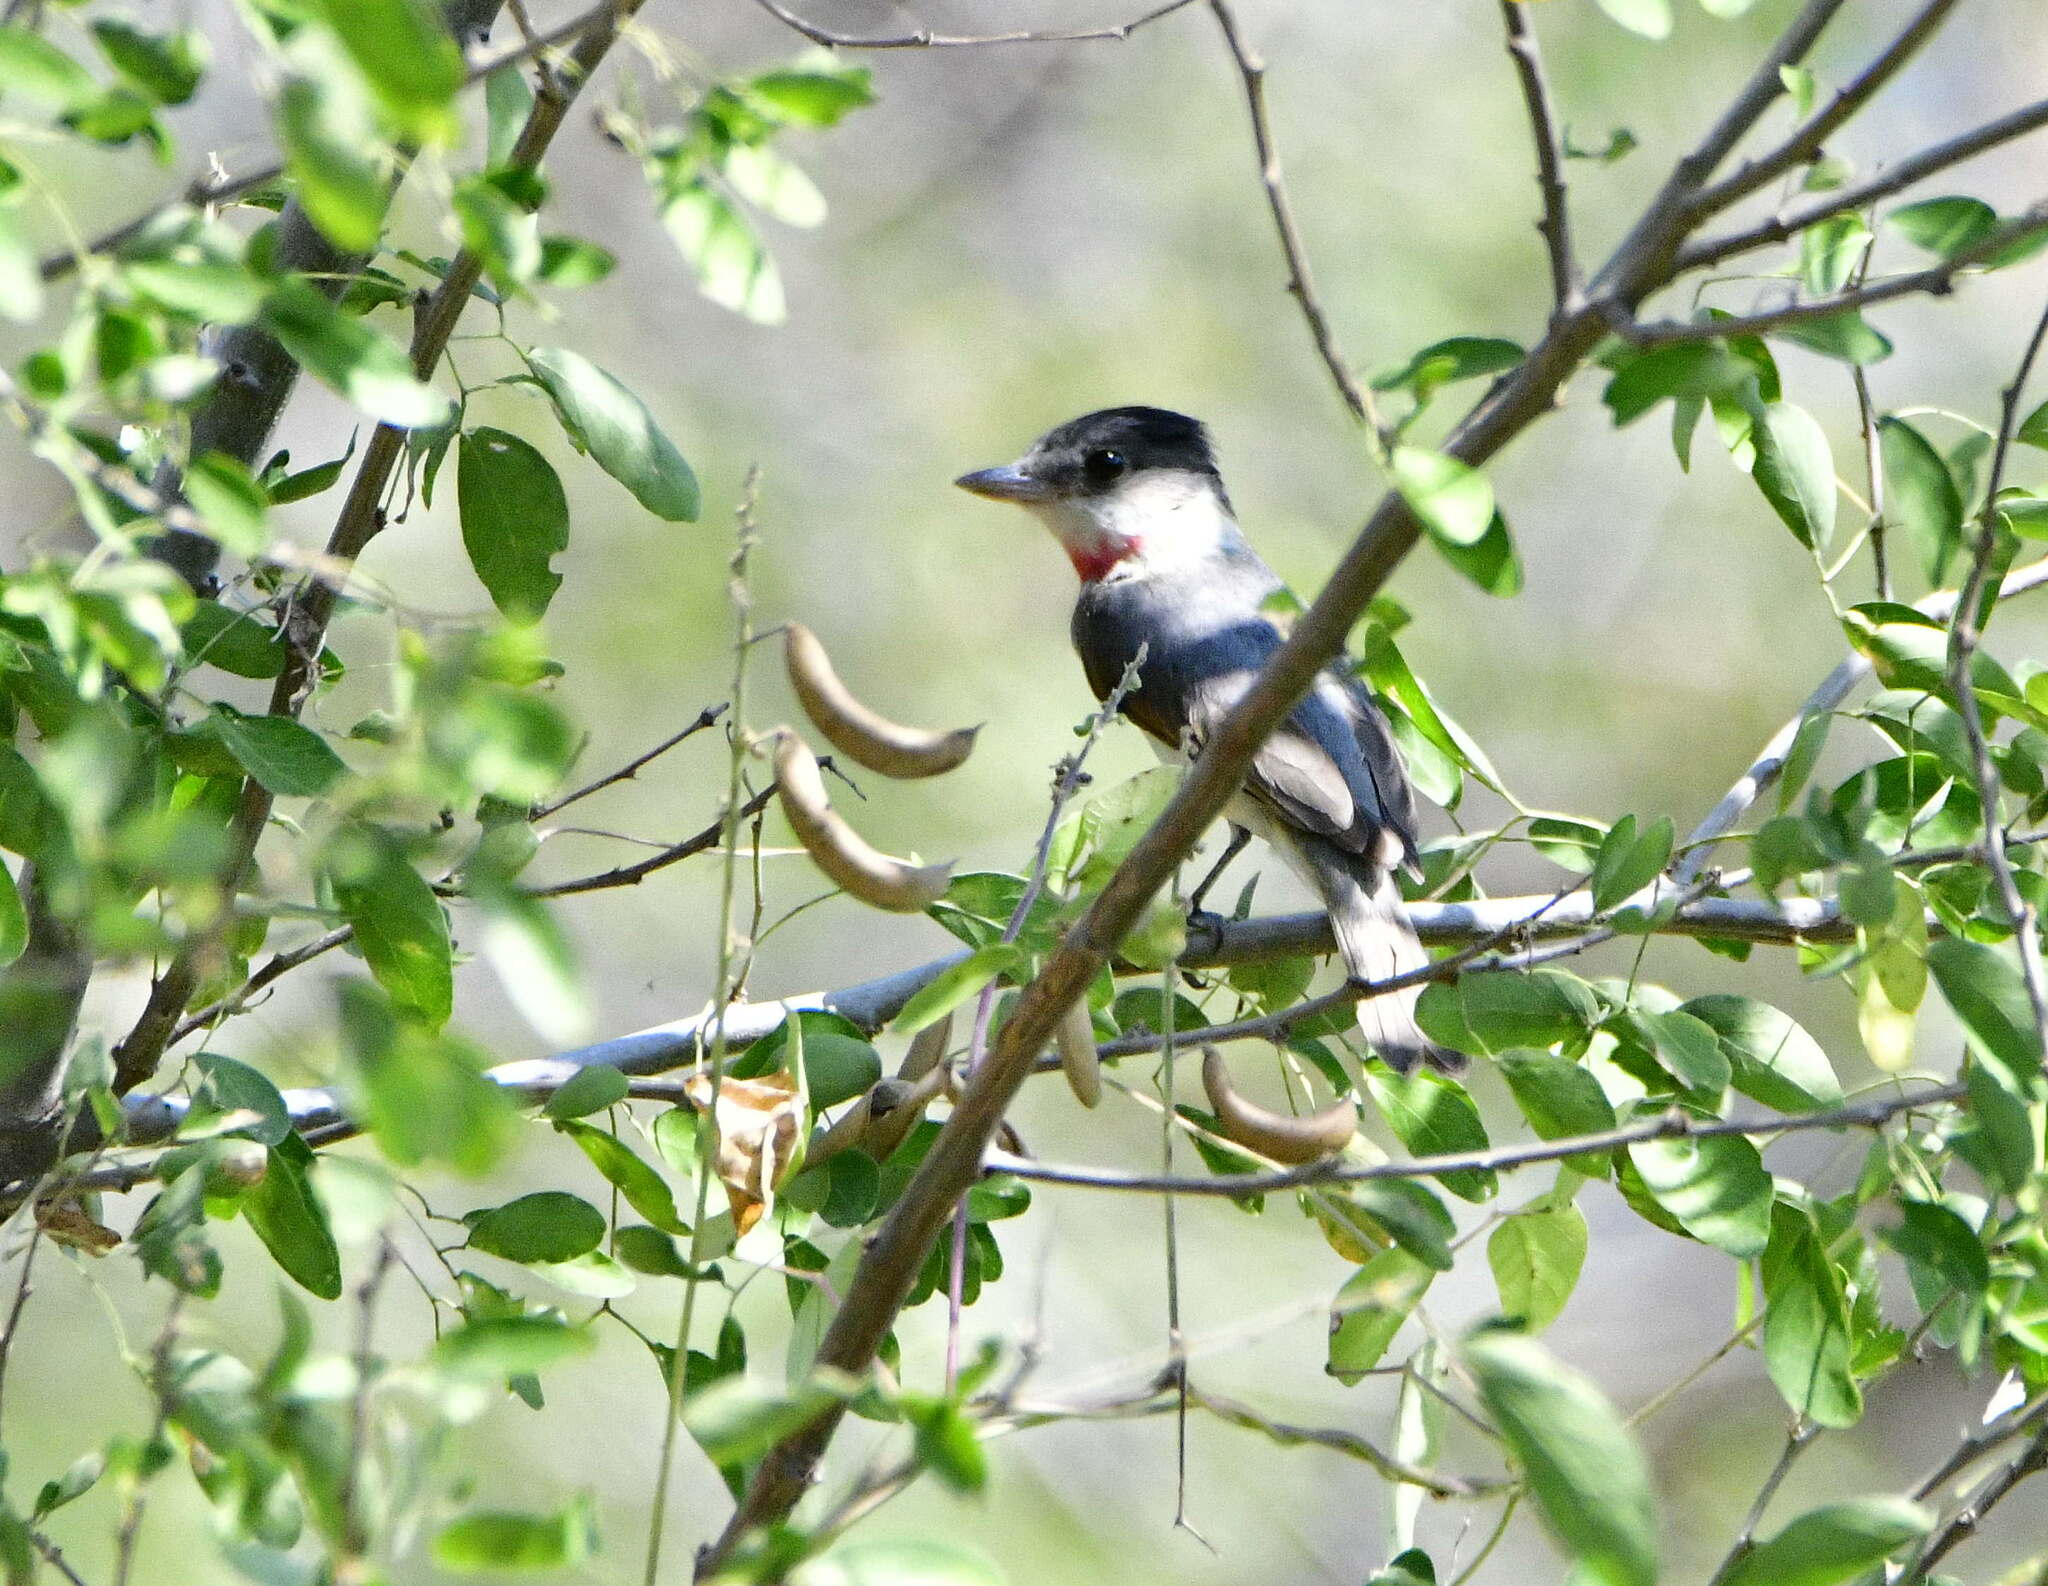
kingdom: Animalia
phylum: Chordata
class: Aves
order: Passeriformes
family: Cotingidae
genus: Pachyramphus
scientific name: Pachyramphus aglaiae
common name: Rose-throated becard
